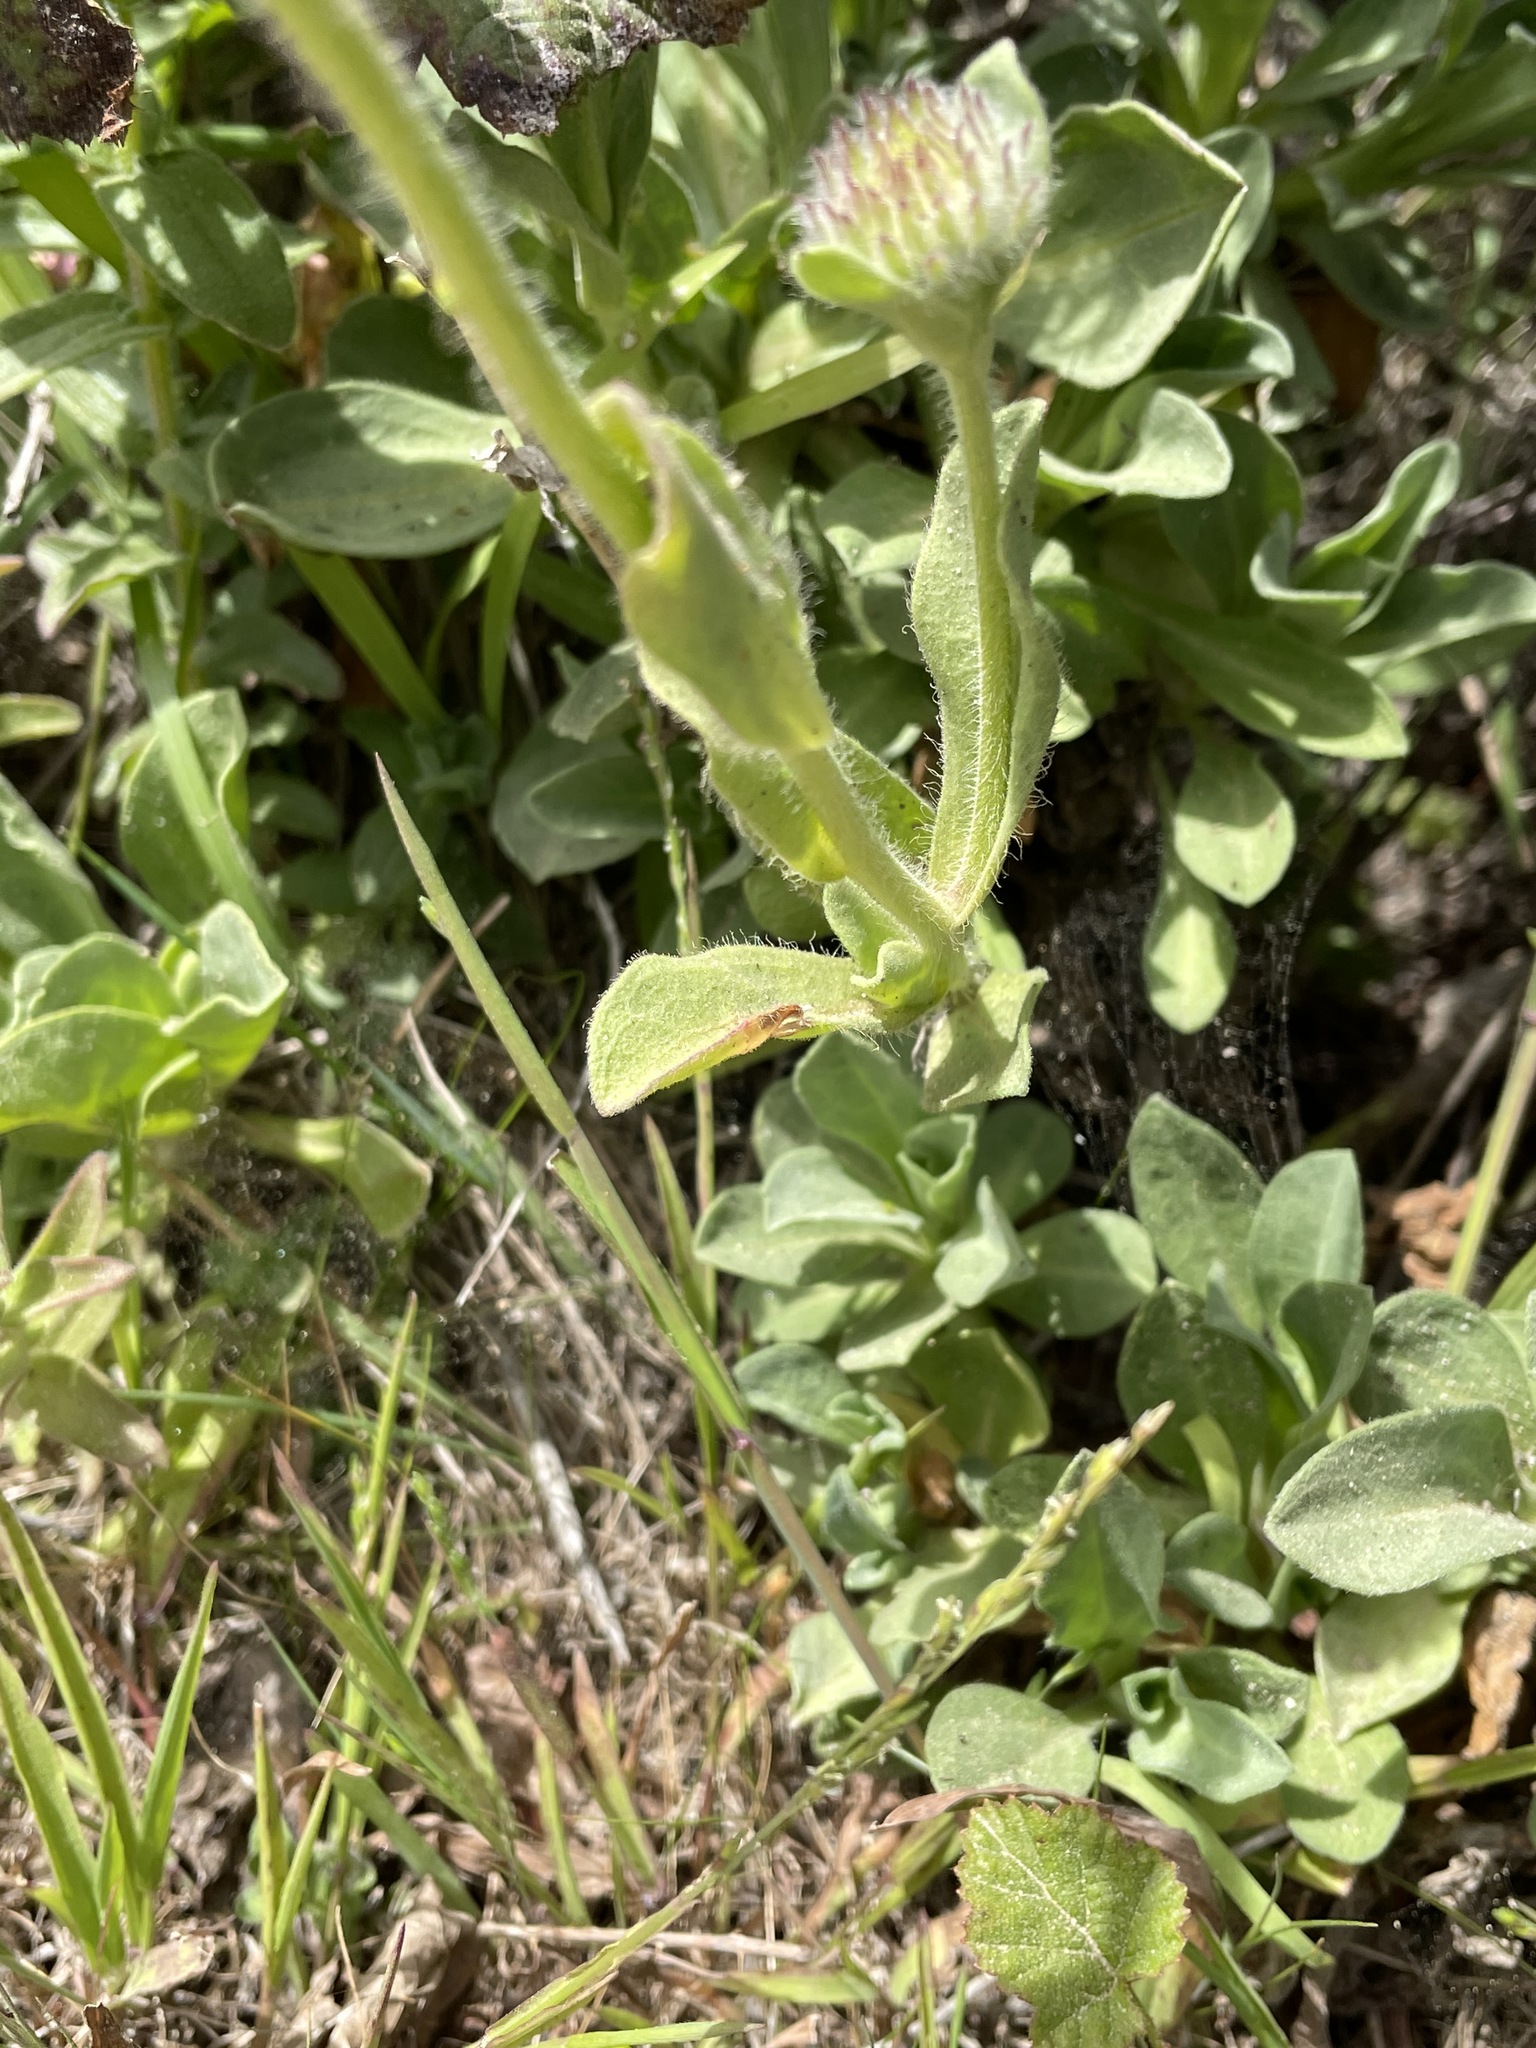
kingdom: Plantae
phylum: Tracheophyta
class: Magnoliopsida
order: Asterales
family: Asteraceae
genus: Erigeron
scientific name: Erigeron glaucus
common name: Seaside daisy
